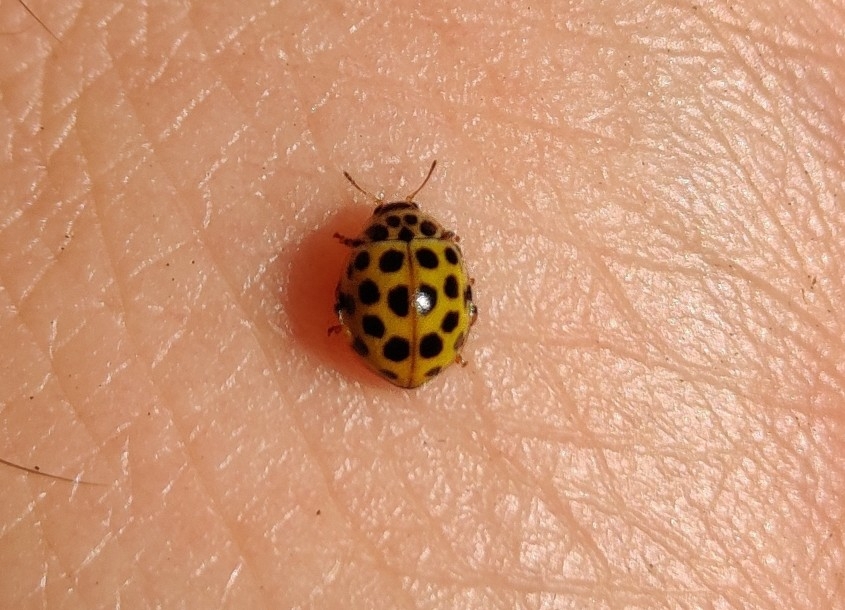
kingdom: Animalia
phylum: Arthropoda
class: Insecta
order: Coleoptera
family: Coccinellidae
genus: Psyllobora
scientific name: Psyllobora vigintiduopunctata
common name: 22-spot ladybird
